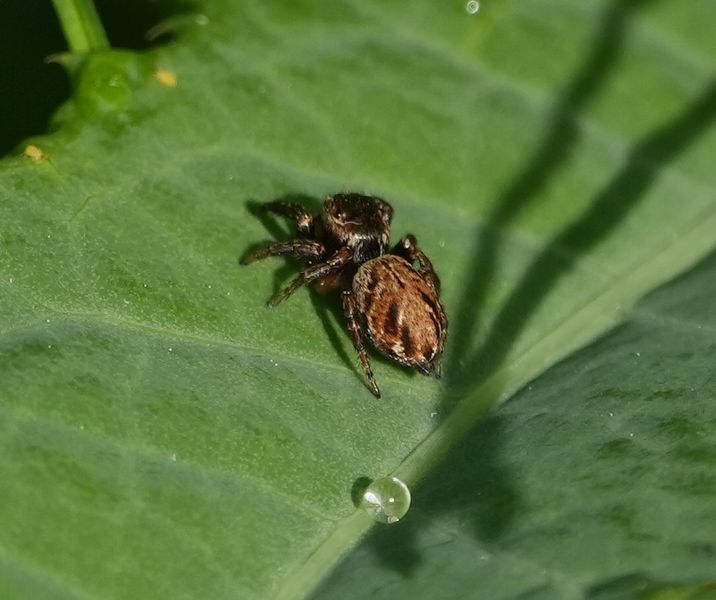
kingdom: Animalia
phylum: Arthropoda
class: Arachnida
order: Araneae
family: Salticidae
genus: Evarcha
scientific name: Evarcha hoyi
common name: Hoy's jumping spider
